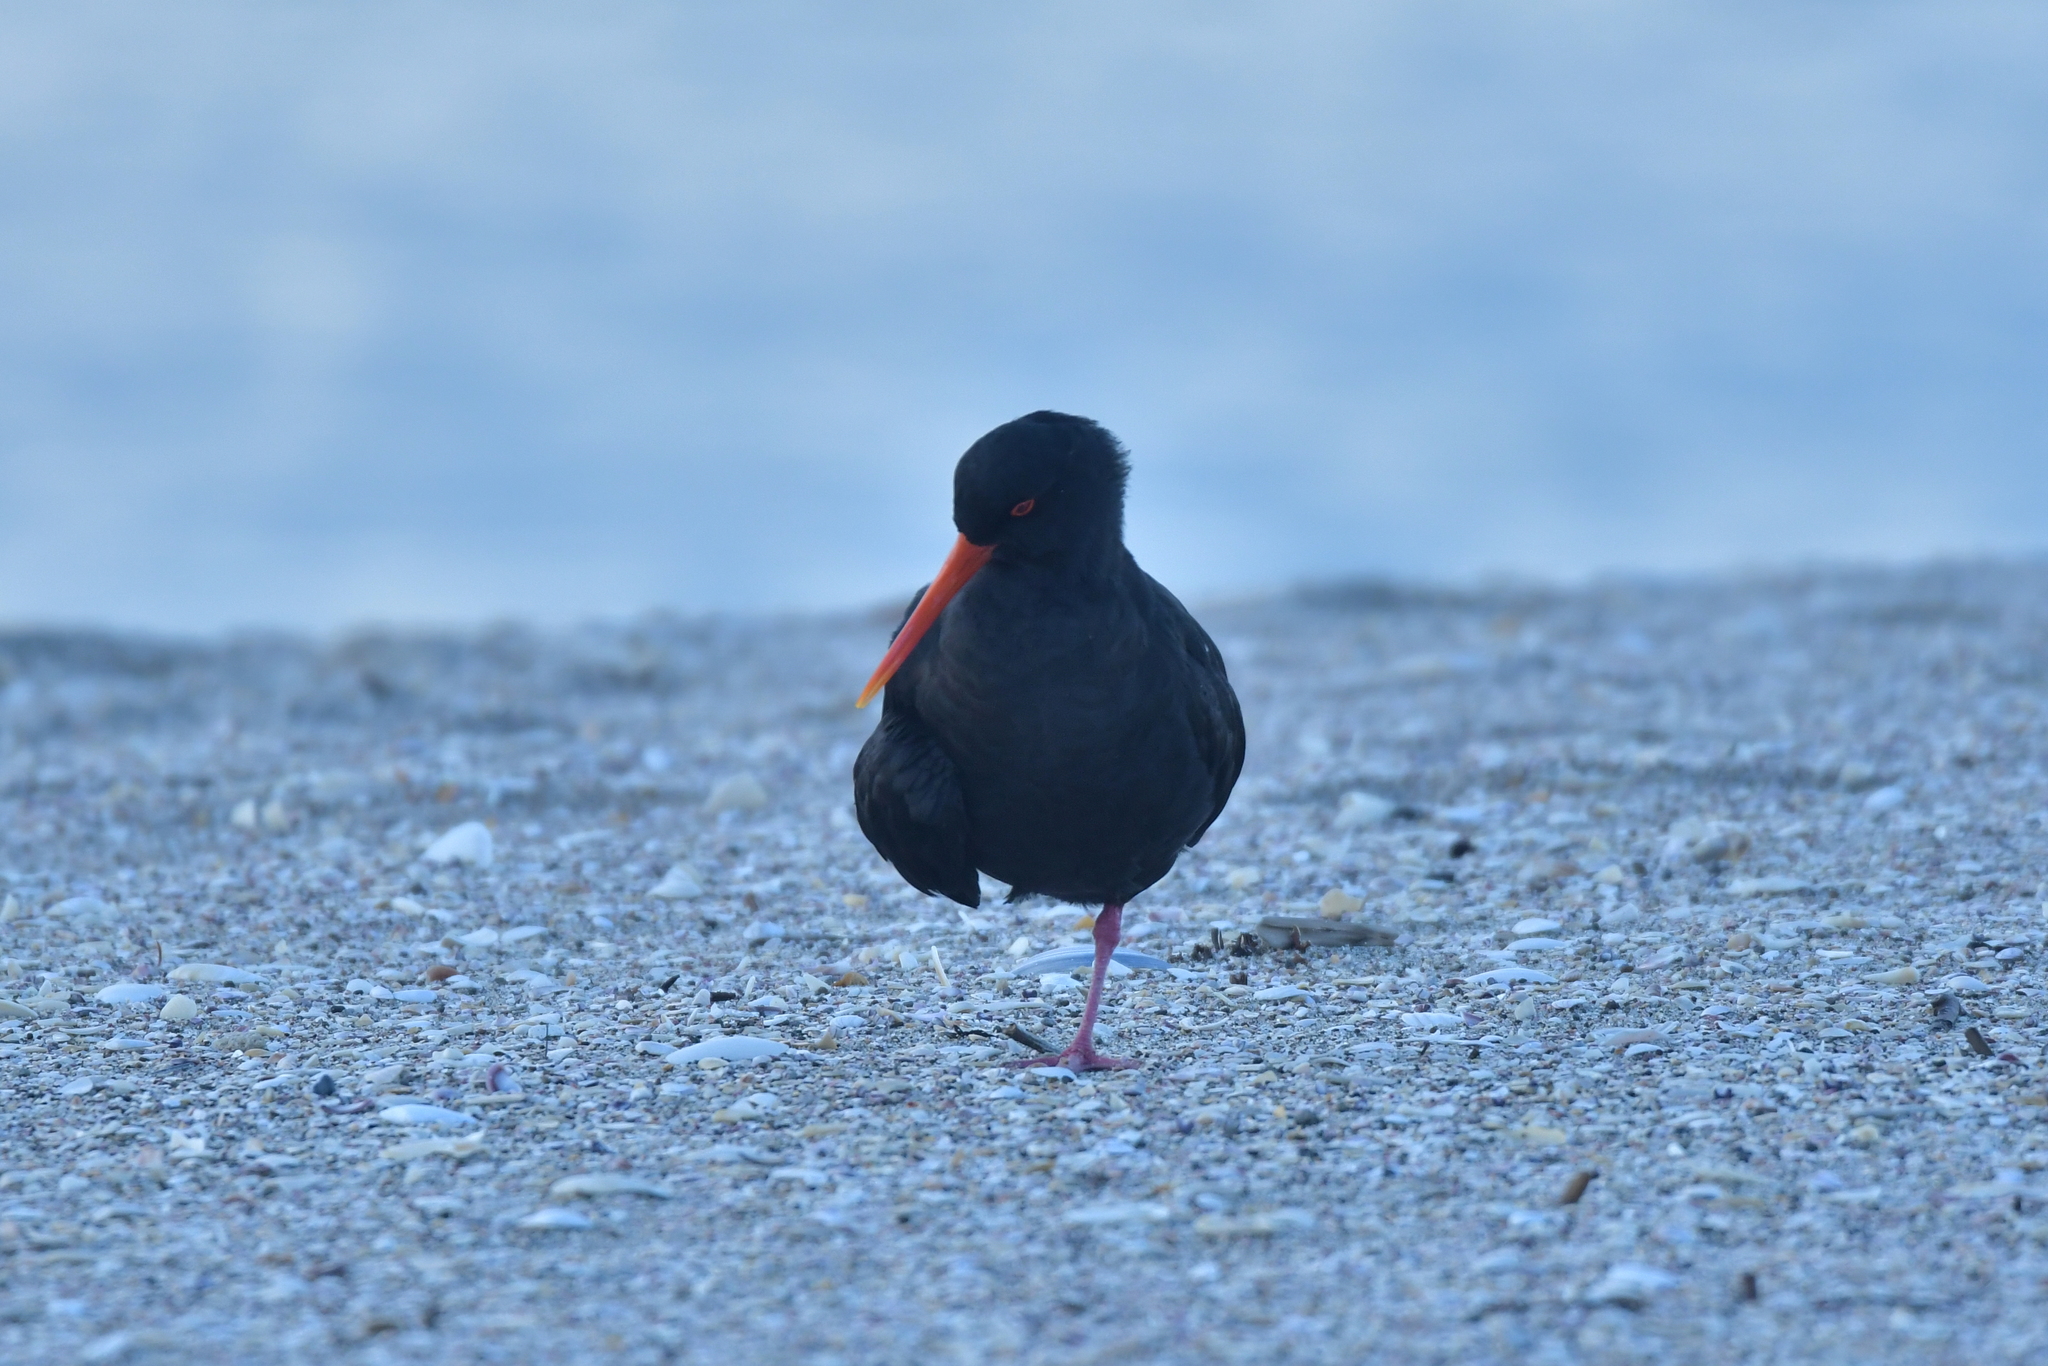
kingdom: Animalia
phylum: Chordata
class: Aves
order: Charadriiformes
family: Haematopodidae
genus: Haematopus
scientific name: Haematopus unicolor
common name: Variable oystercatcher
